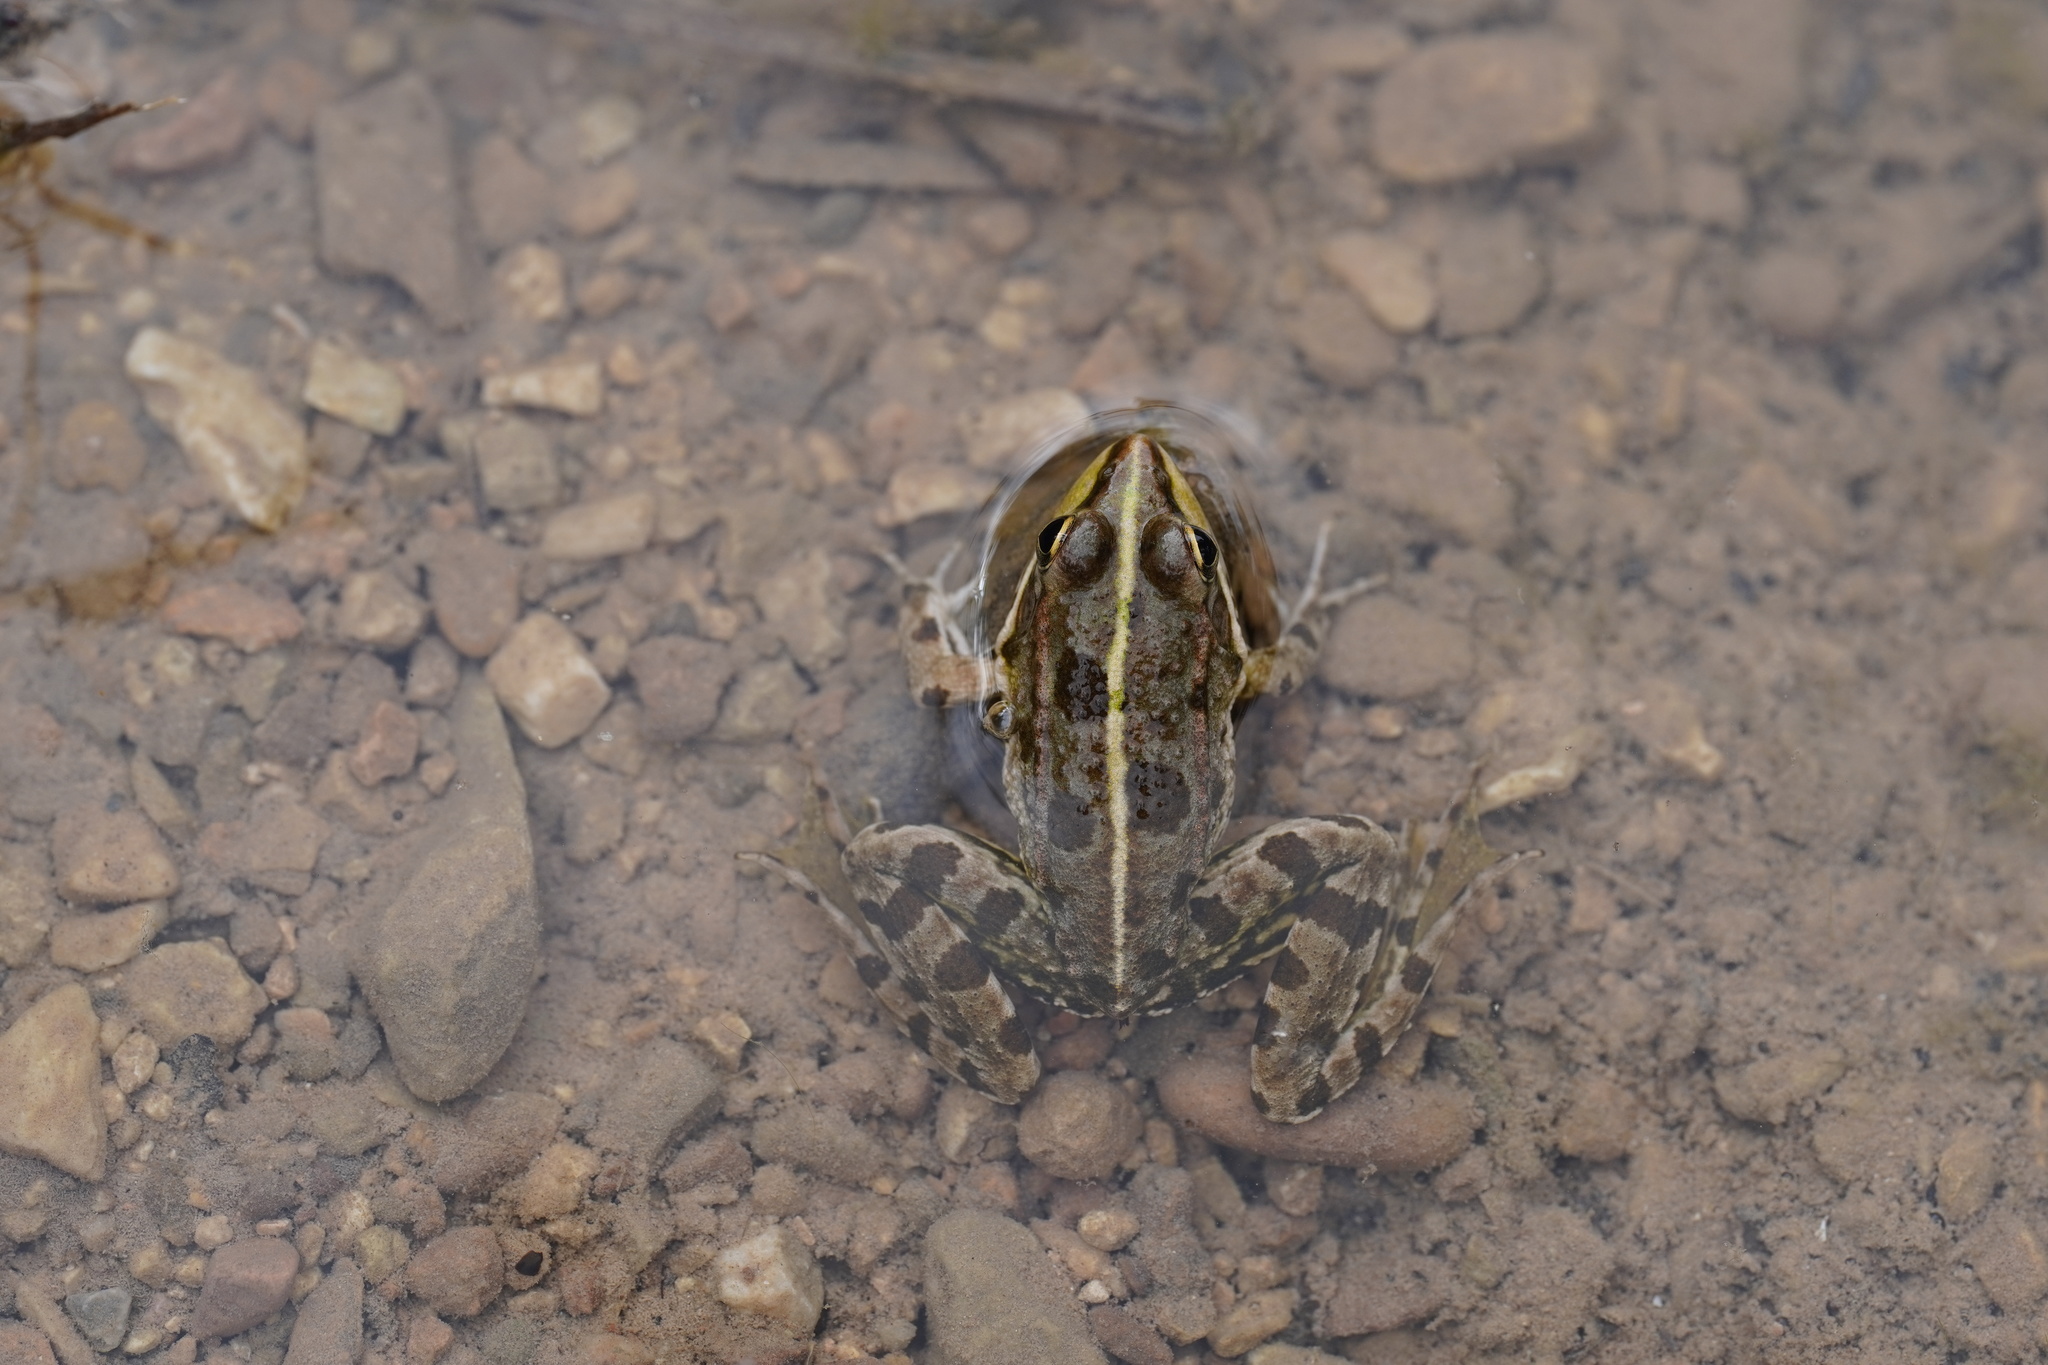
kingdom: Animalia
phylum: Chordata
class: Amphibia
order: Anura
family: Ranidae
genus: Pelophylax
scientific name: Pelophylax perezi
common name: Perez's frog
